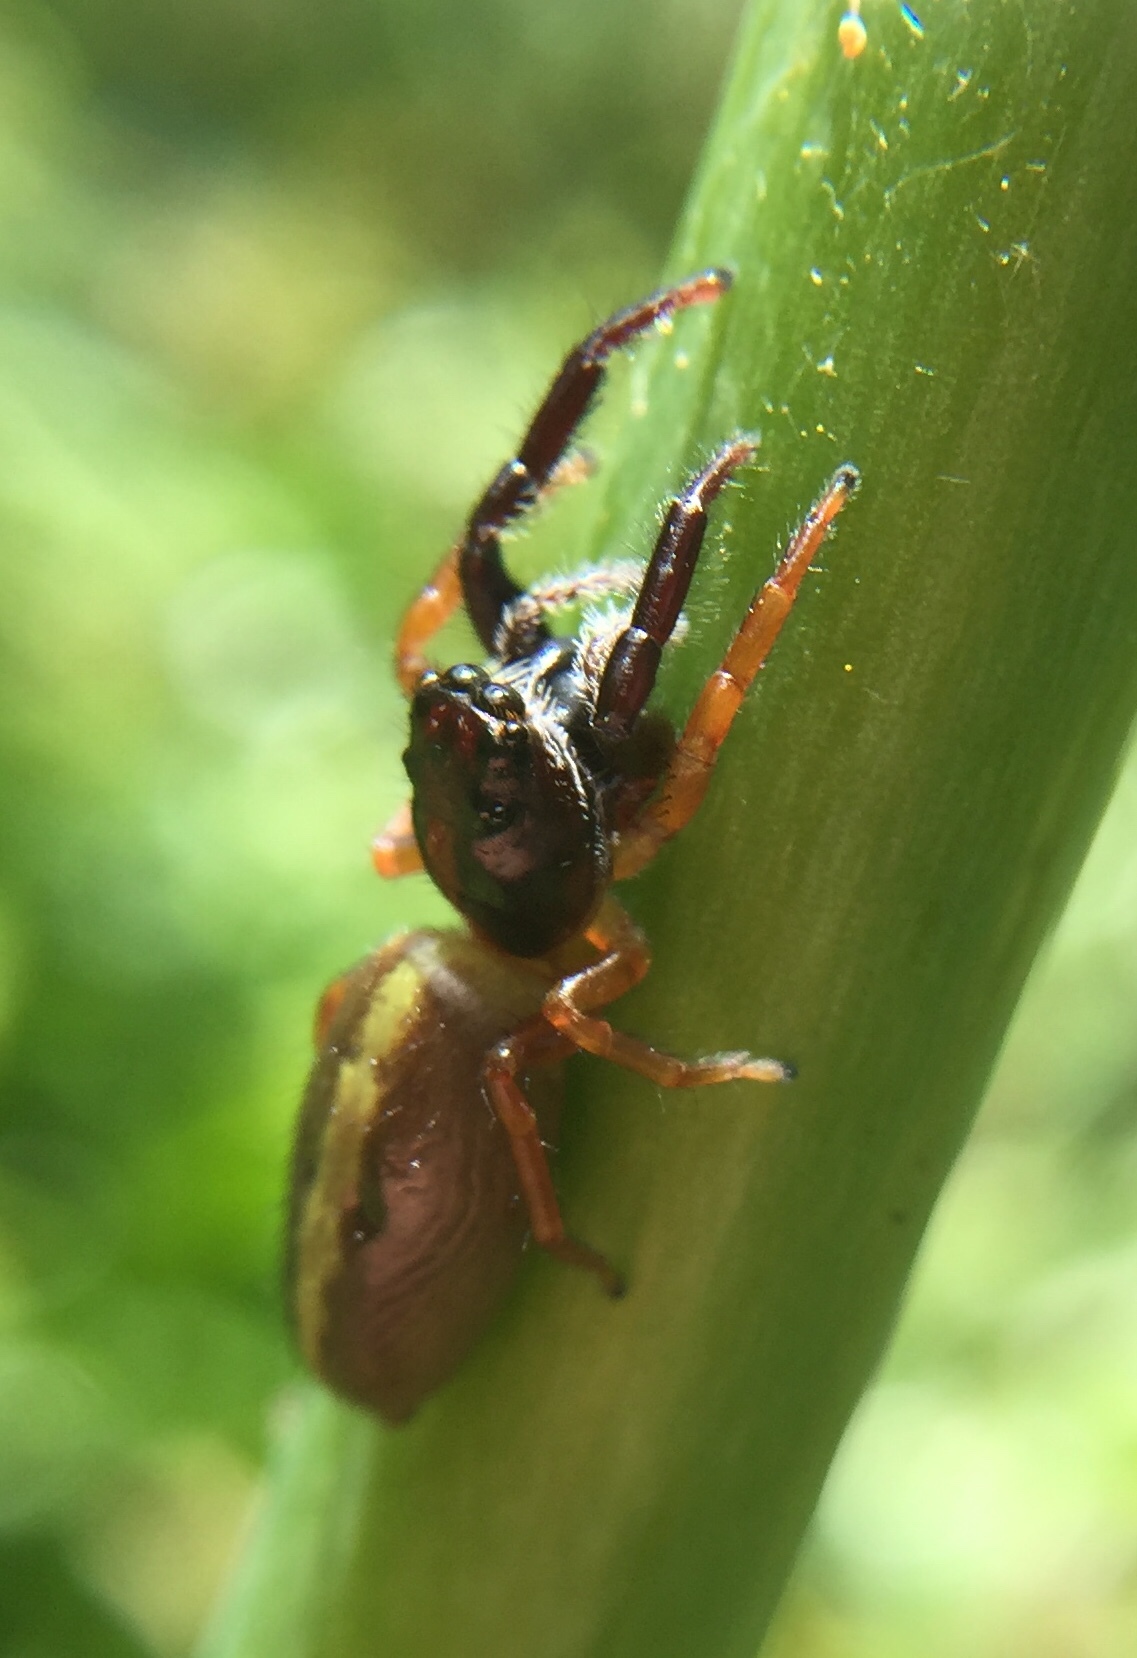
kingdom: Animalia
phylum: Arthropoda
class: Arachnida
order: Araneae
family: Salticidae
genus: Trite
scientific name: Trite planiceps
